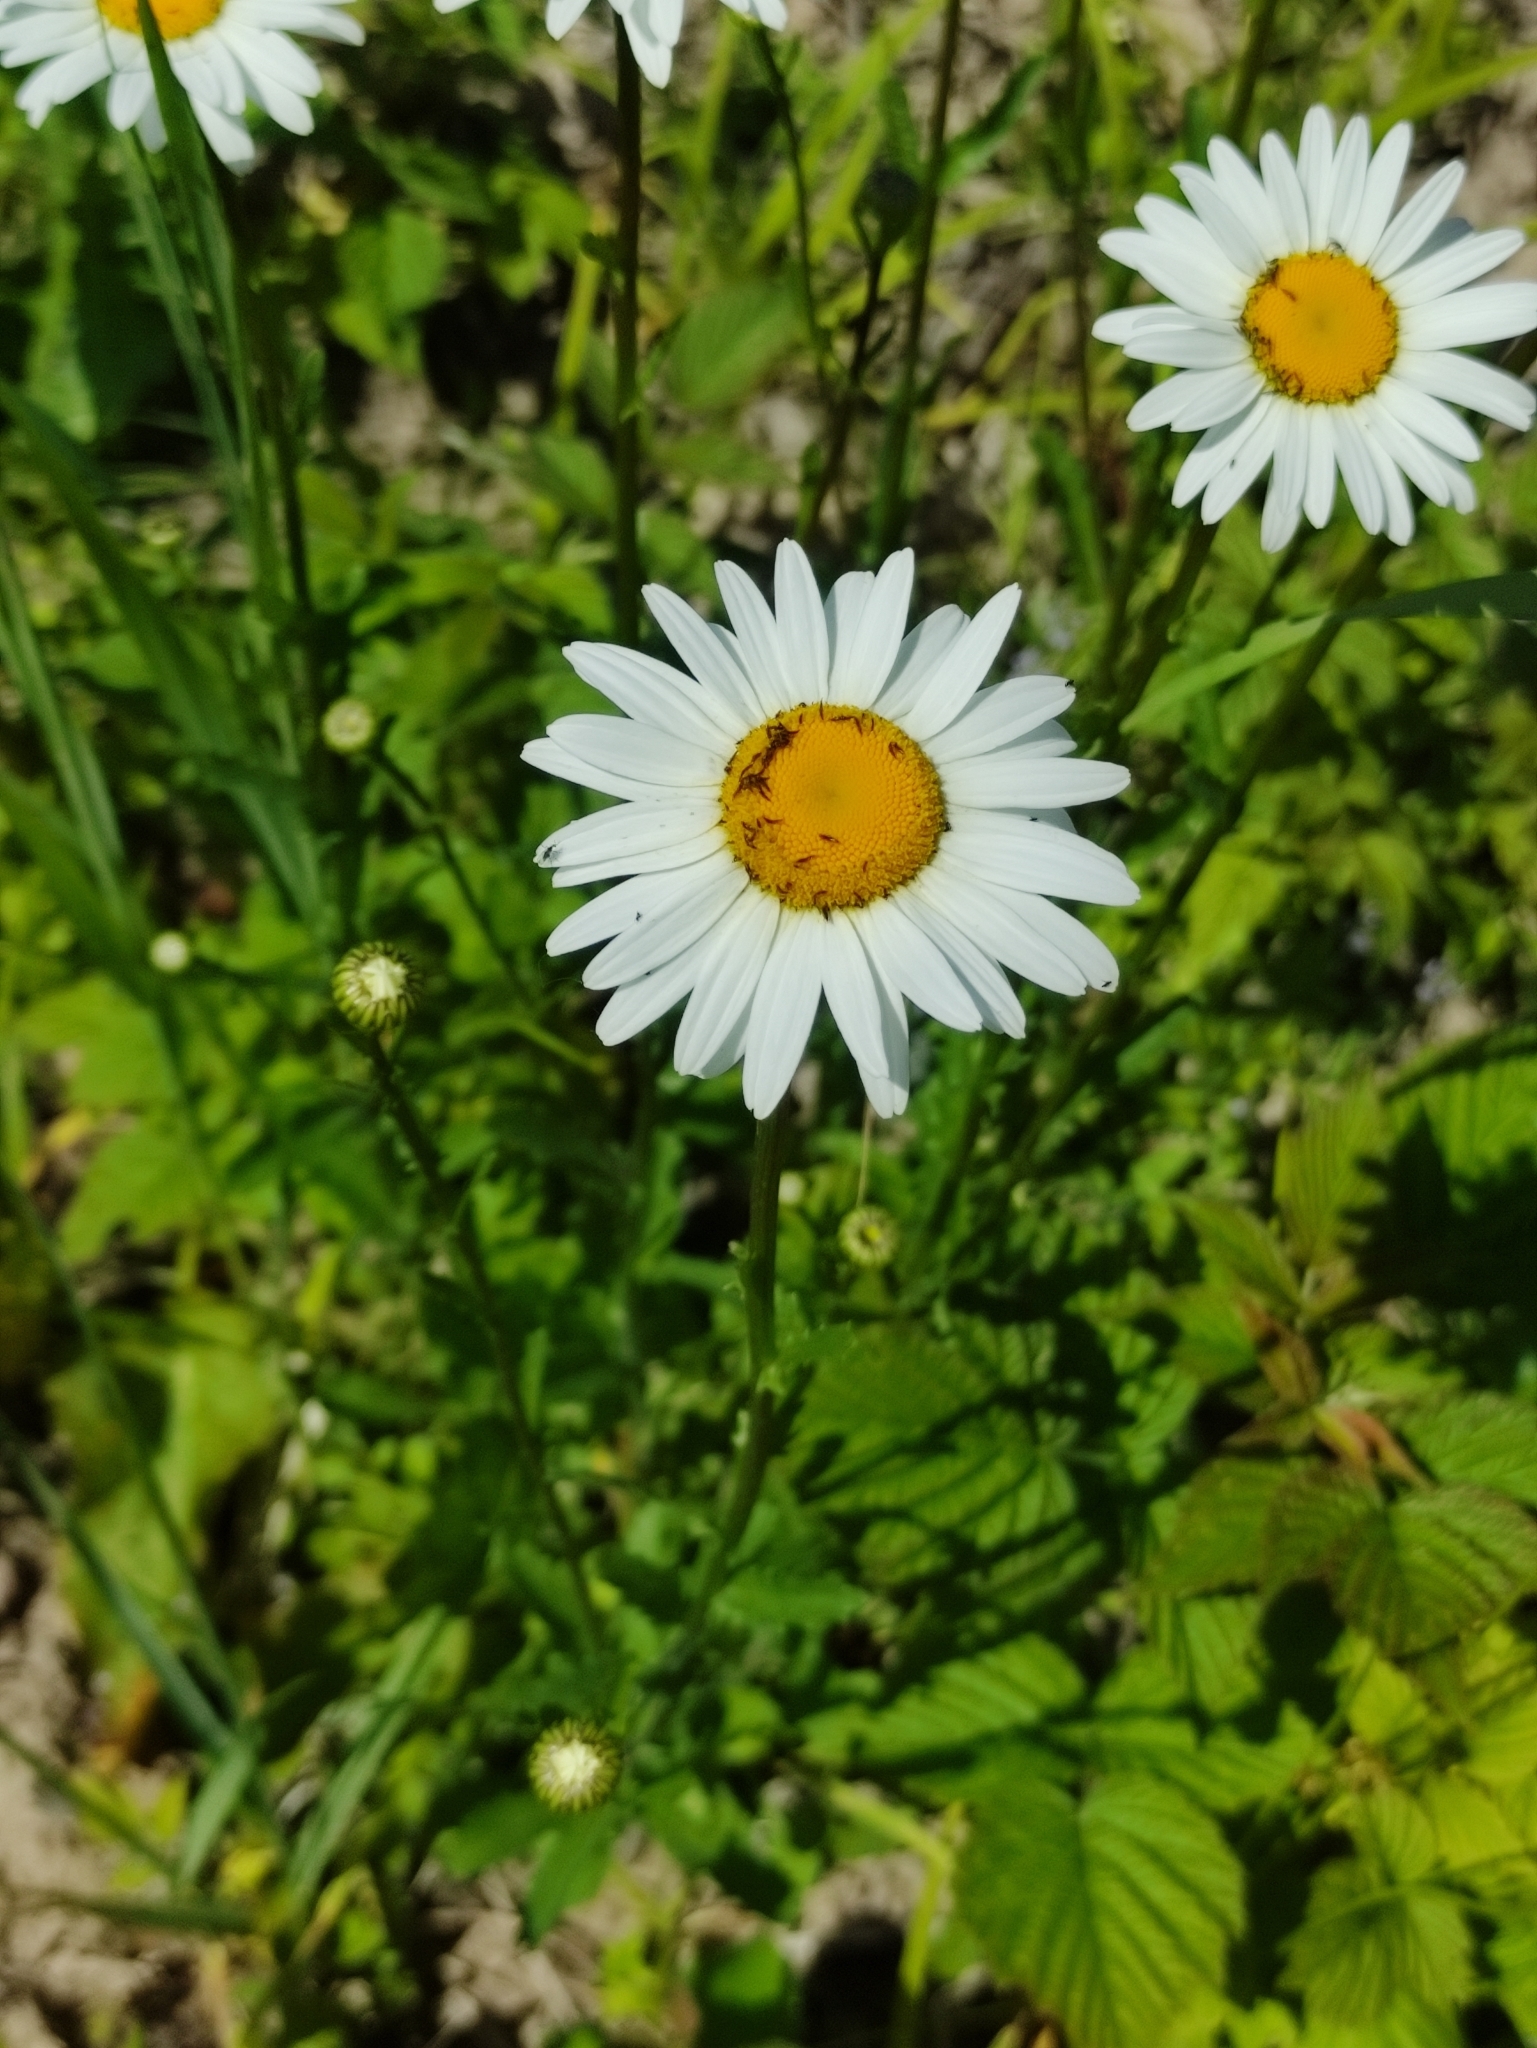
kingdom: Plantae
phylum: Tracheophyta
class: Magnoliopsida
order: Asterales
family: Asteraceae
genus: Leucanthemum
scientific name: Leucanthemum vulgare
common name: Oxeye daisy
